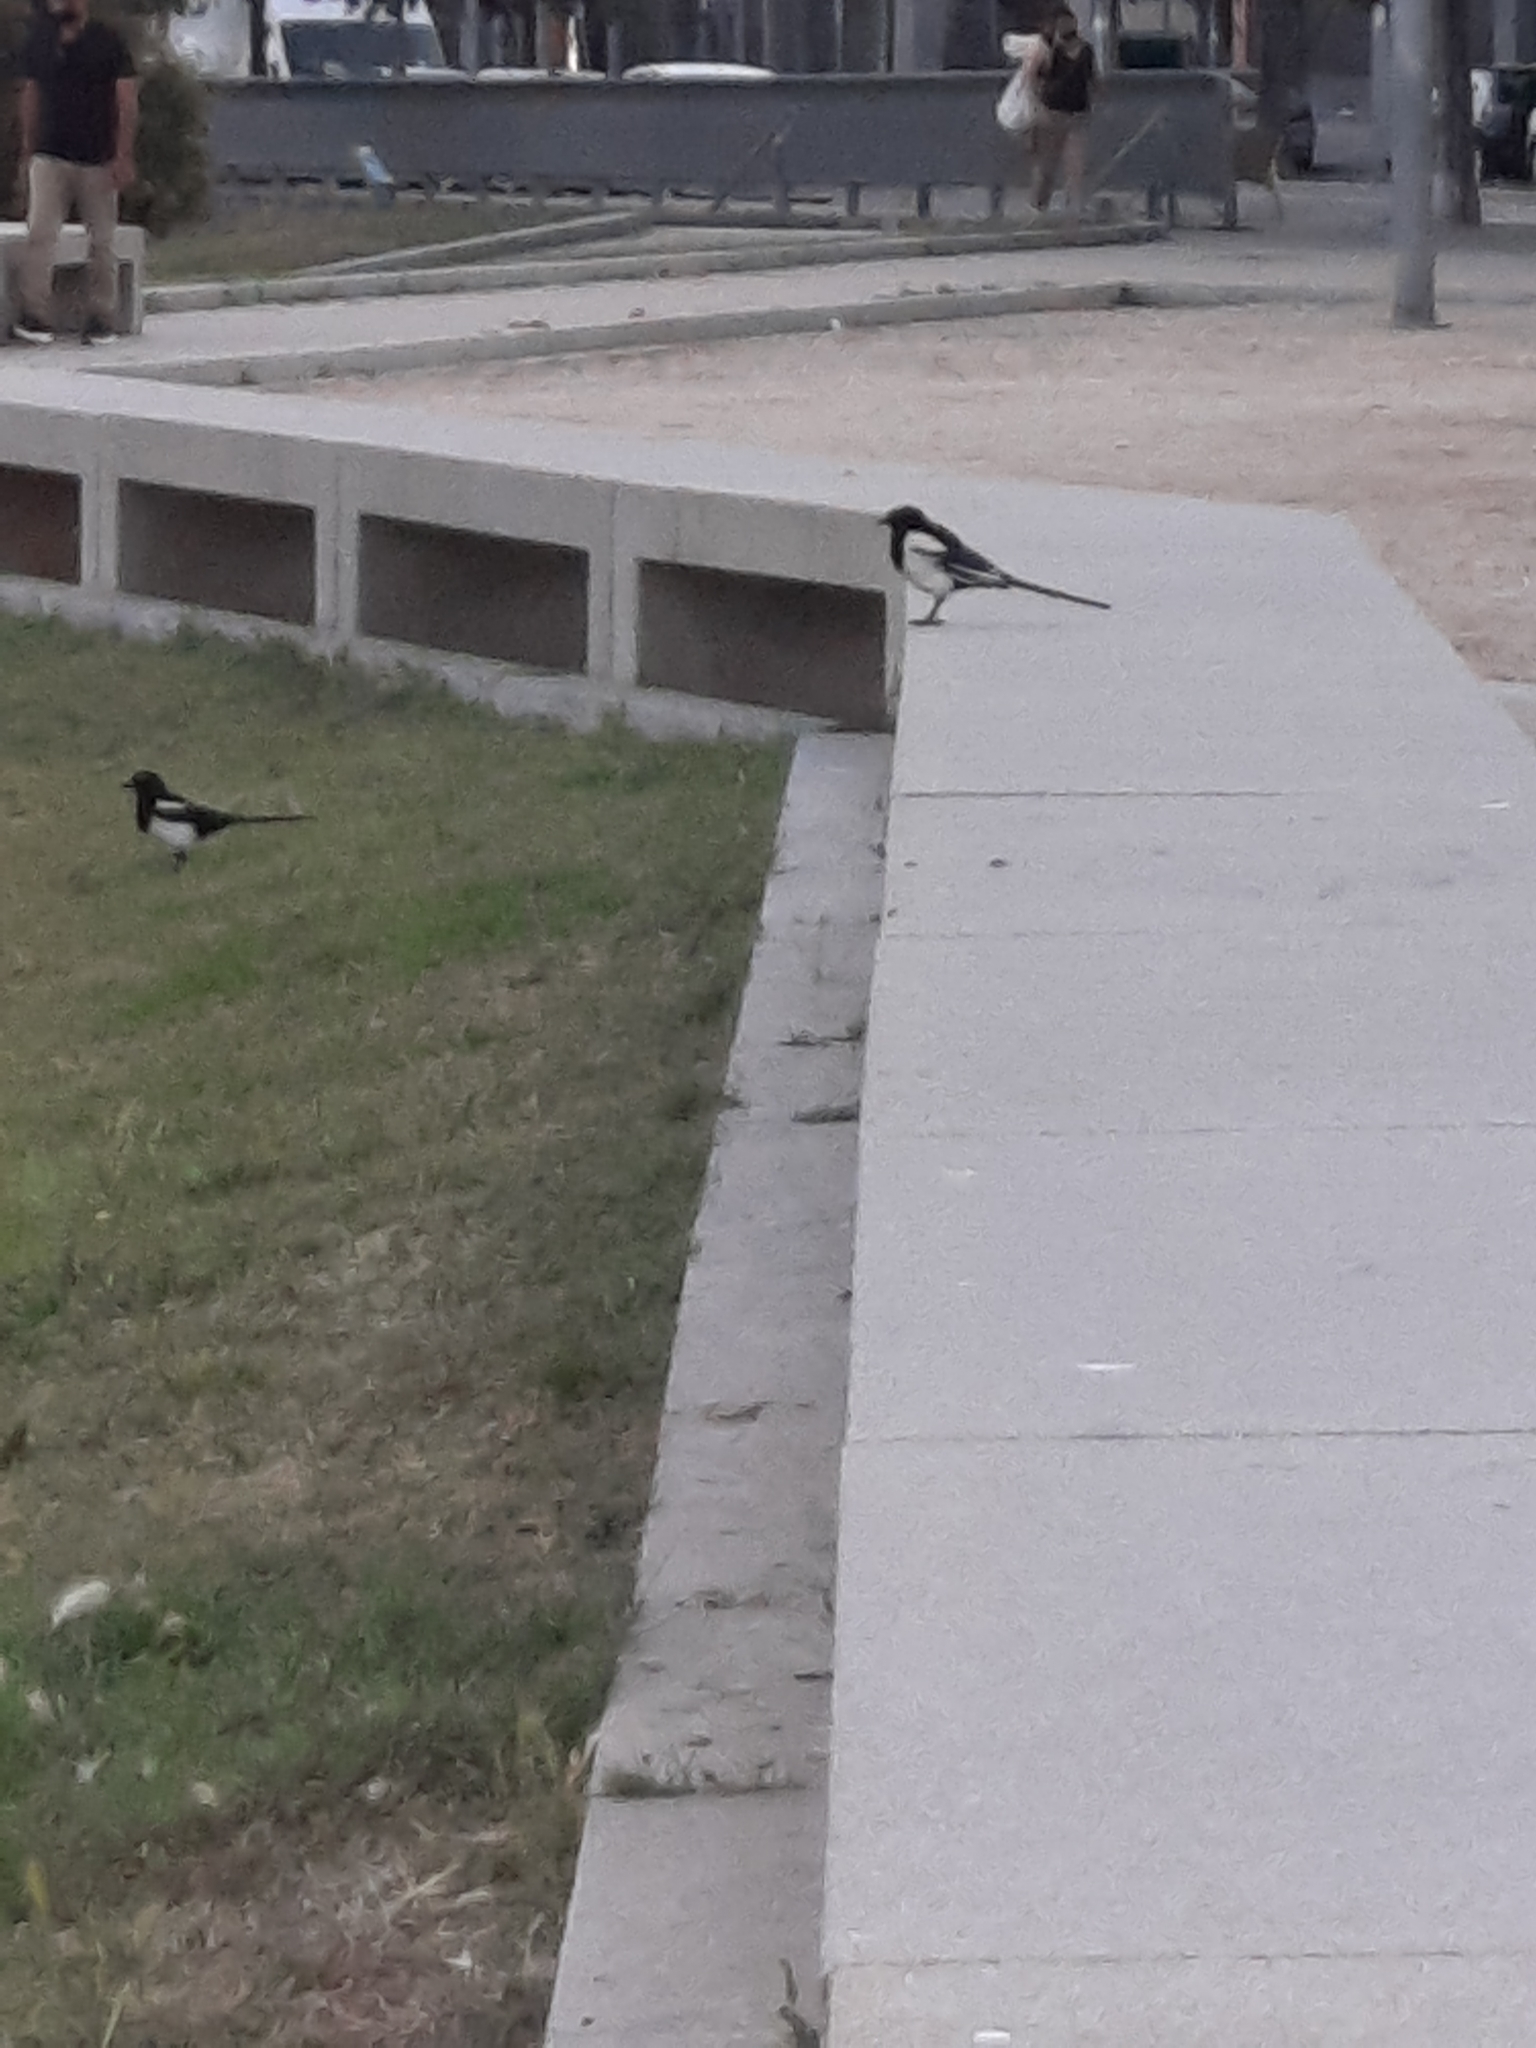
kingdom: Animalia
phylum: Chordata
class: Aves
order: Passeriformes
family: Corvidae
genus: Pica
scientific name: Pica pica
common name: Eurasian magpie
